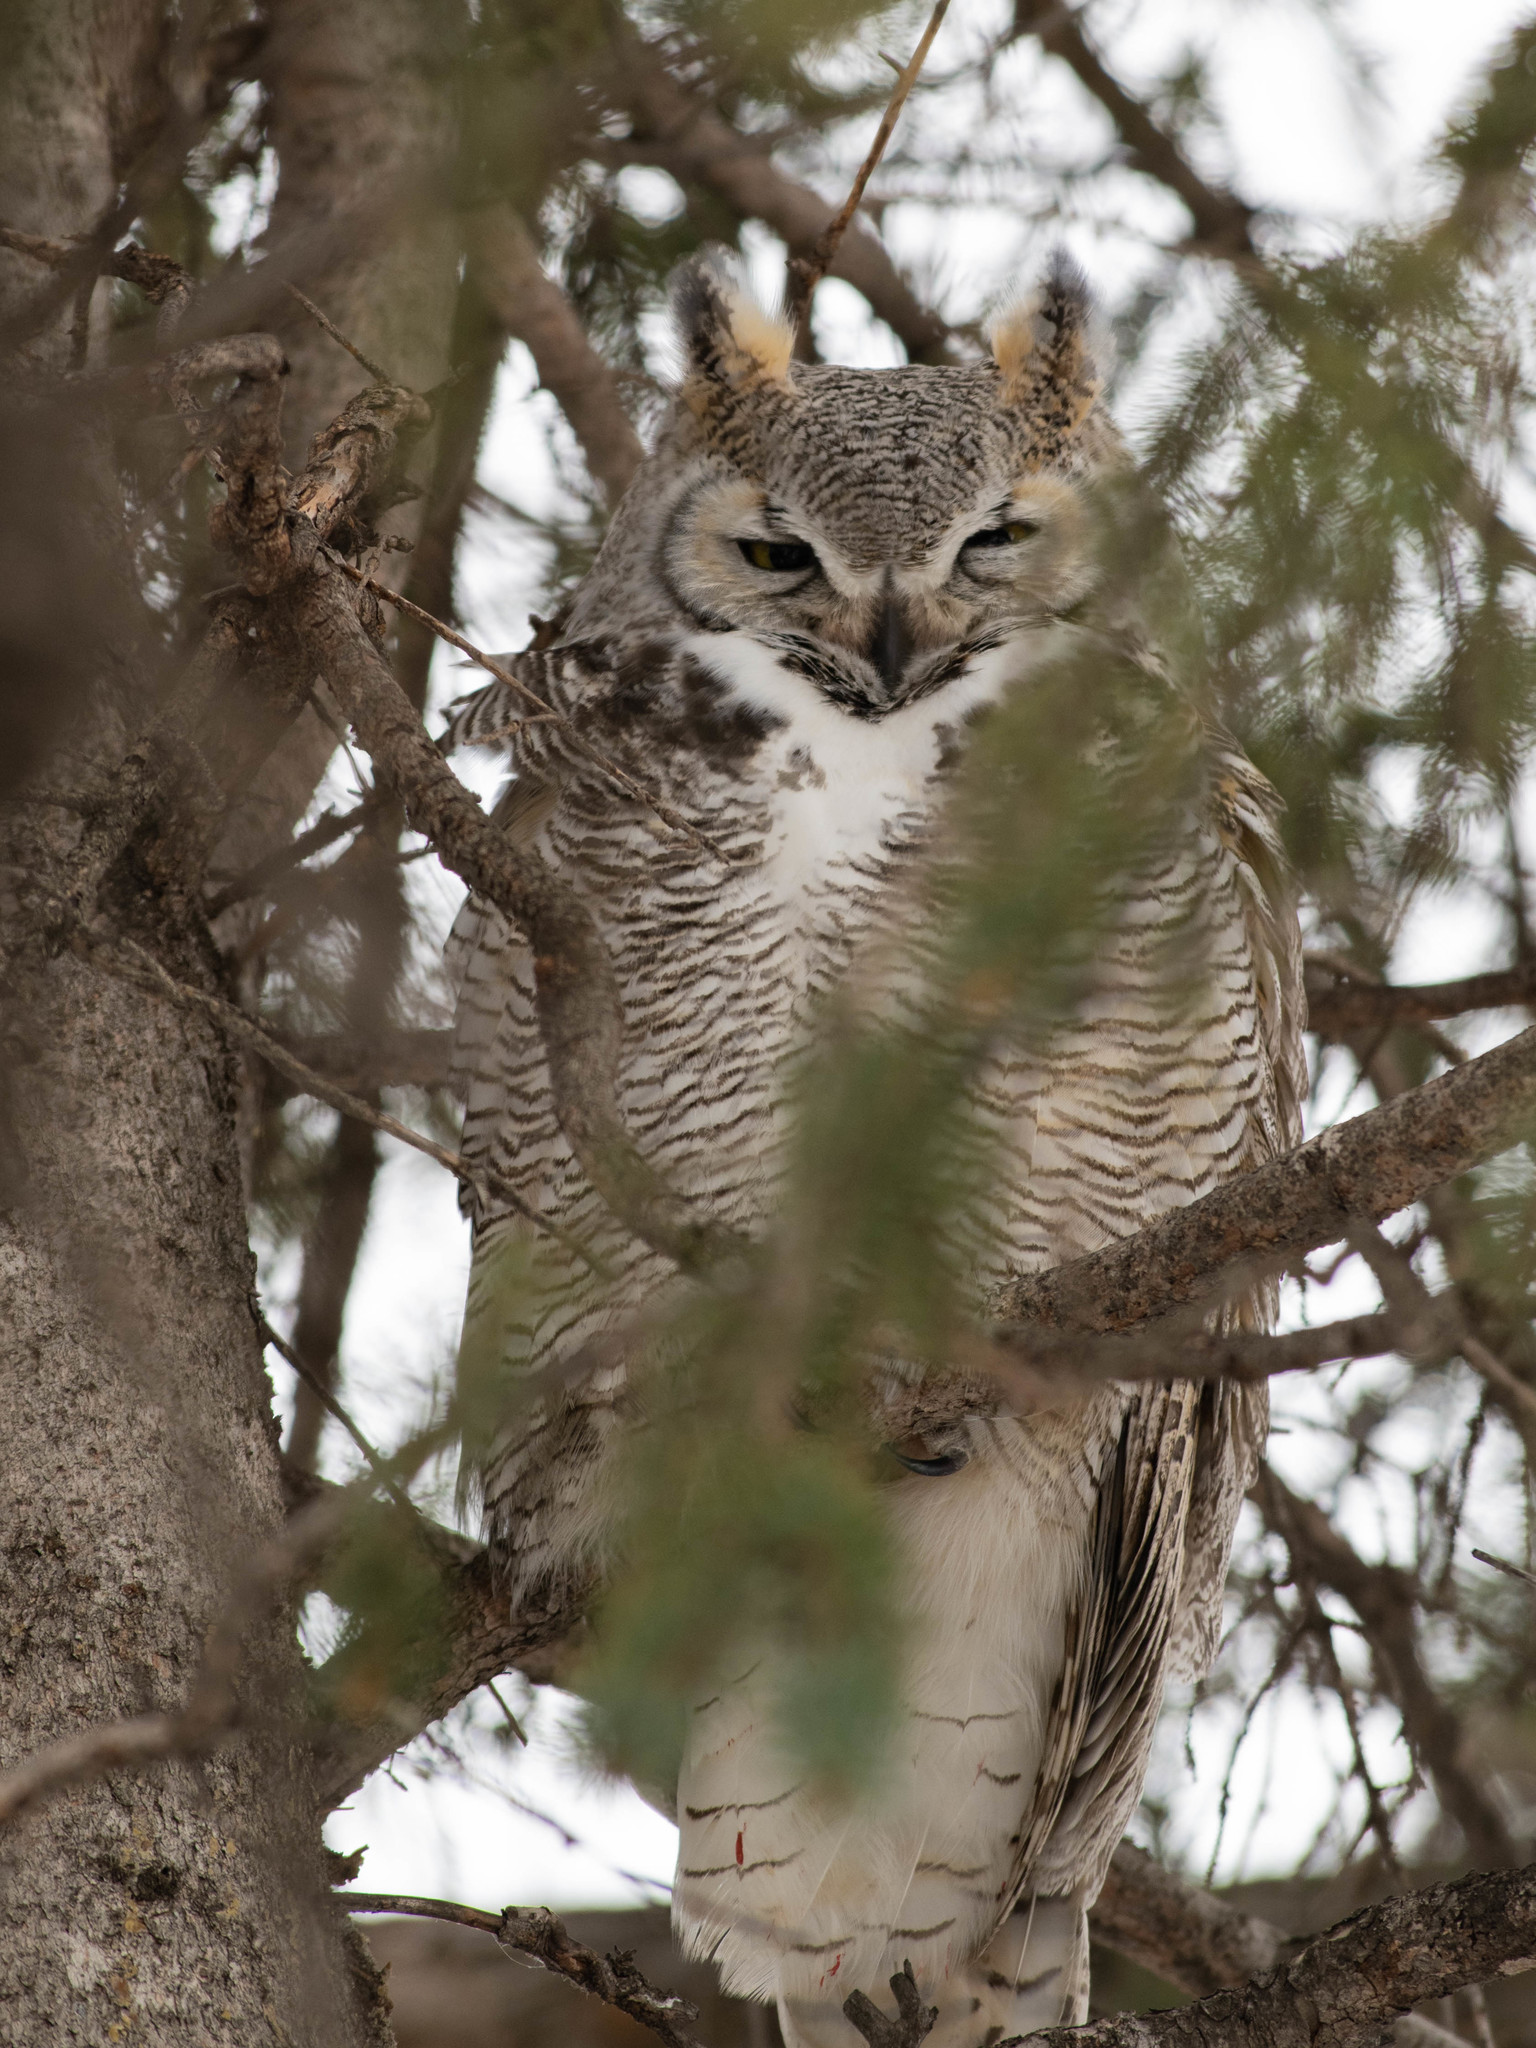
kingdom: Animalia
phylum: Chordata
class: Aves
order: Strigiformes
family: Strigidae
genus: Bubo
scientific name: Bubo virginianus
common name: Great horned owl
